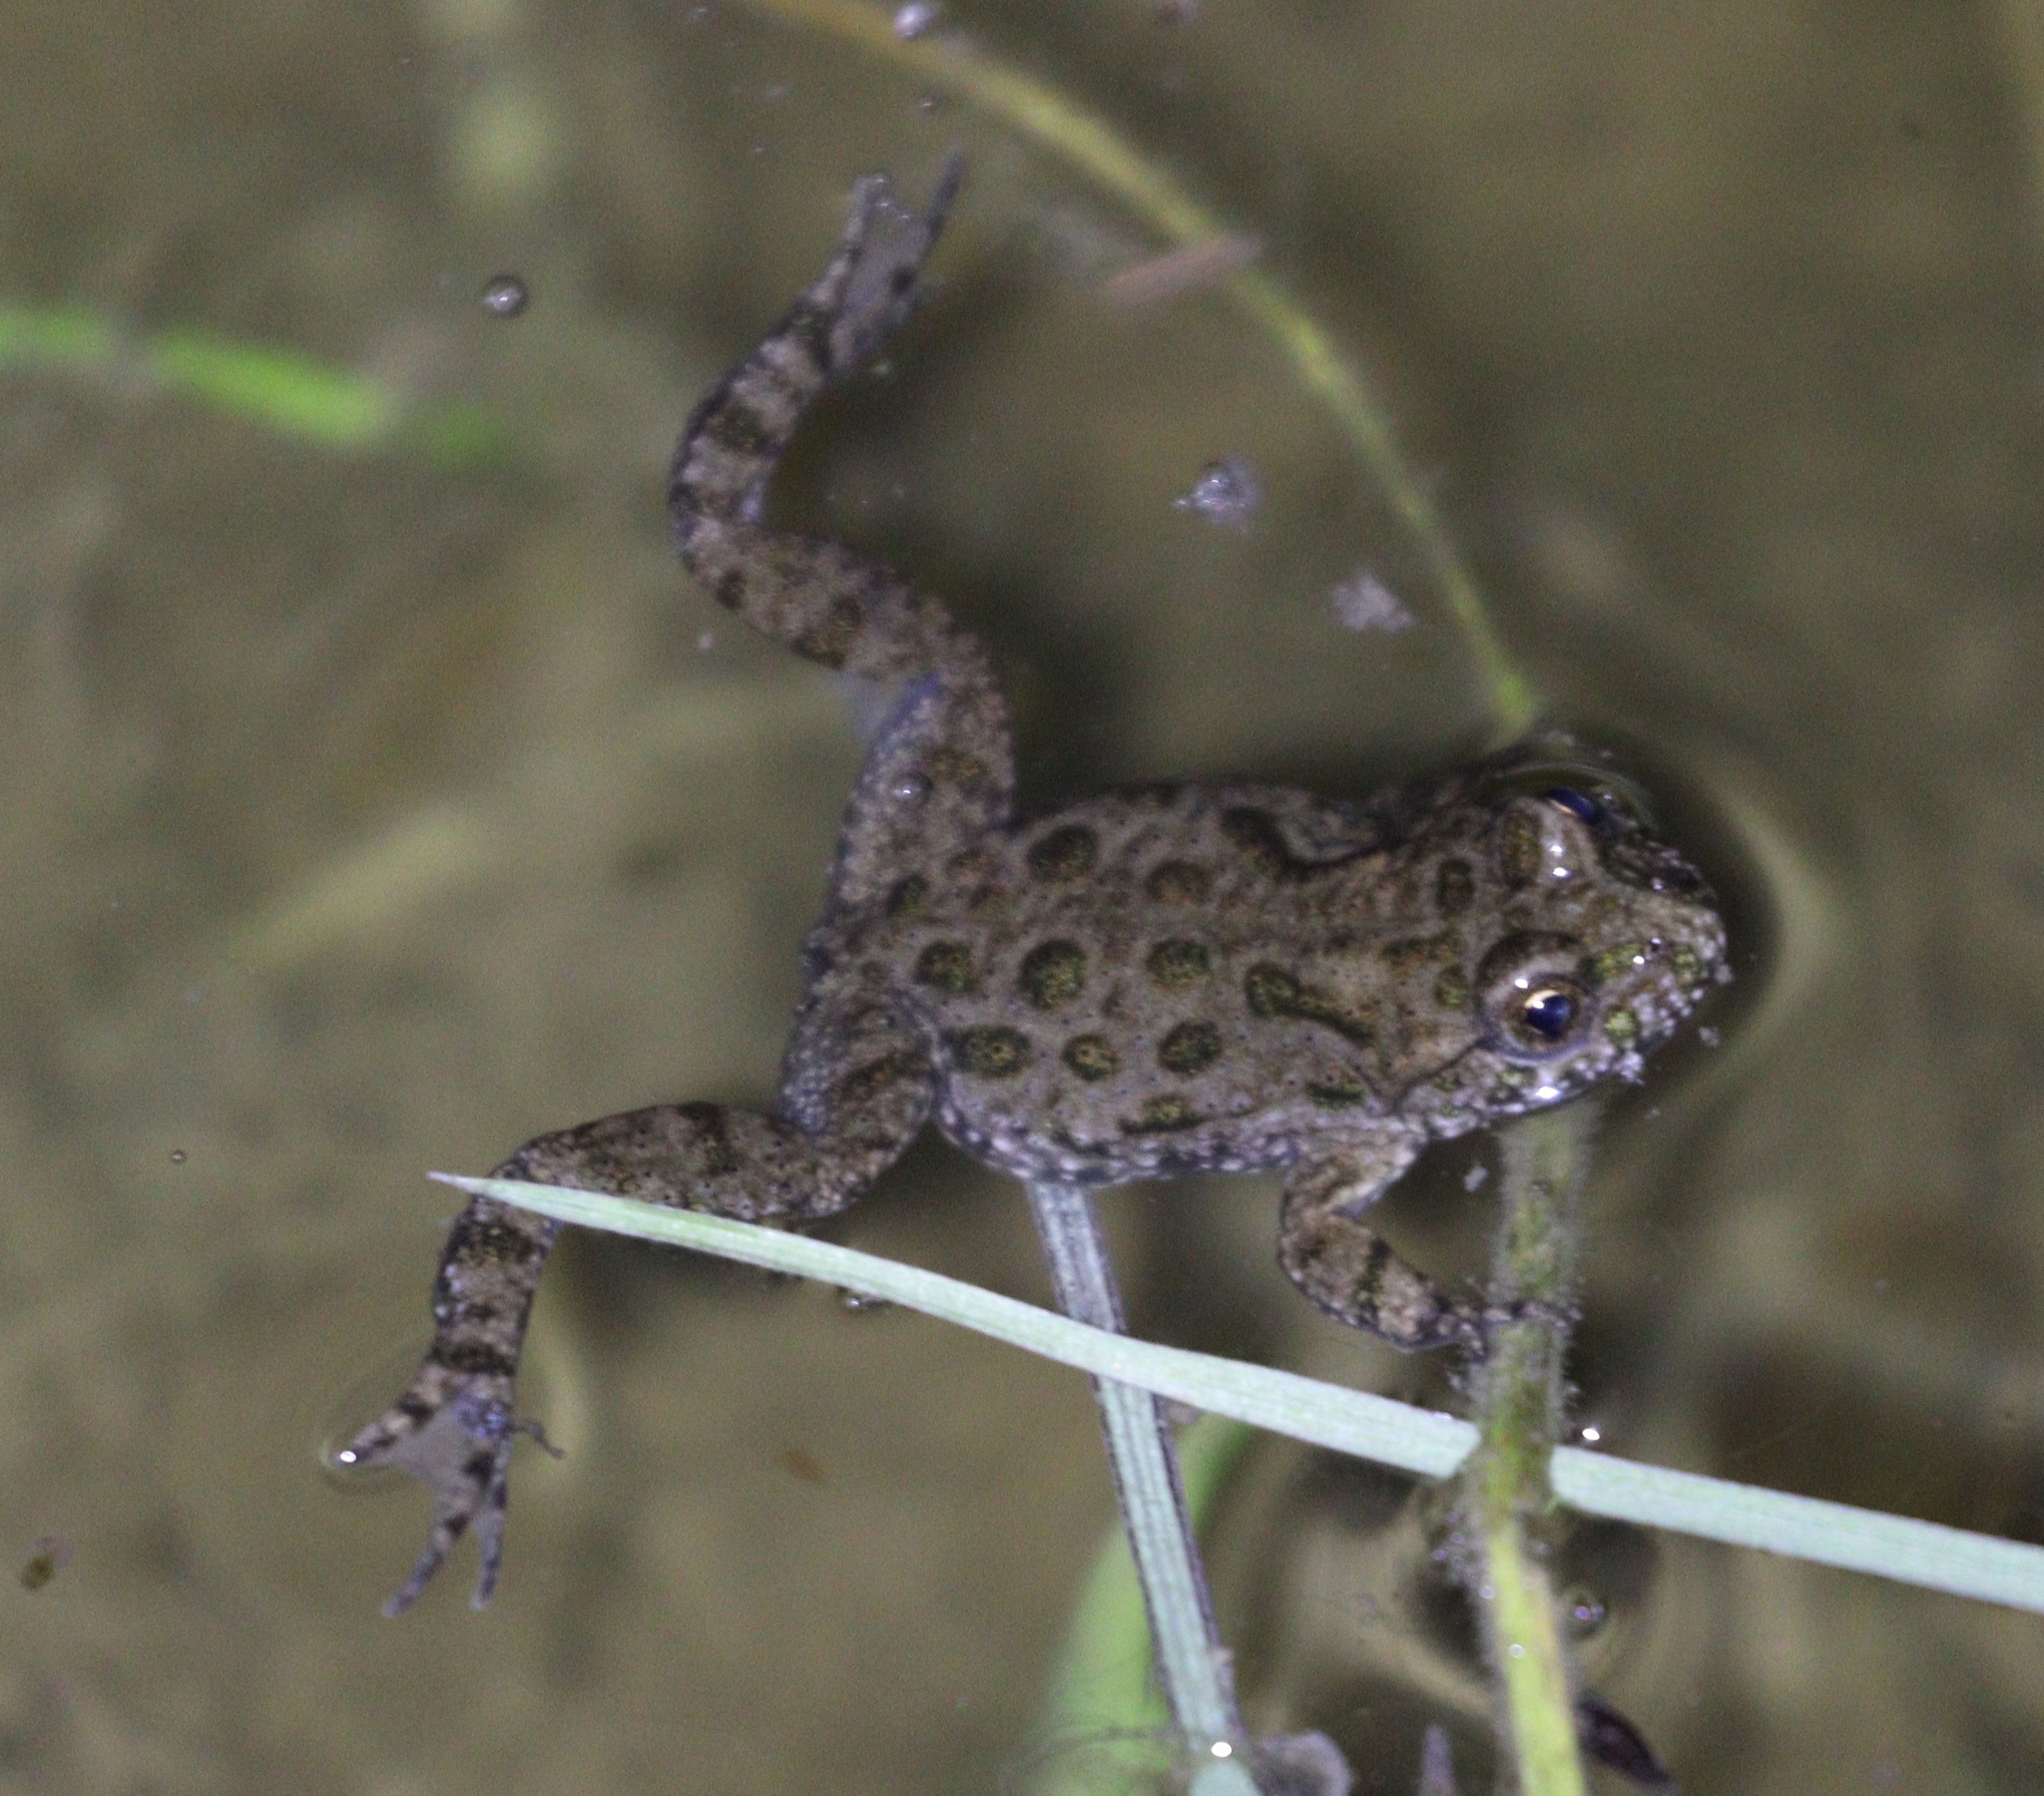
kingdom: Animalia
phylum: Chordata
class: Amphibia
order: Anura
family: Bombinatoridae
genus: Bombina
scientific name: Bombina bombina
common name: Fire-bellied toad
